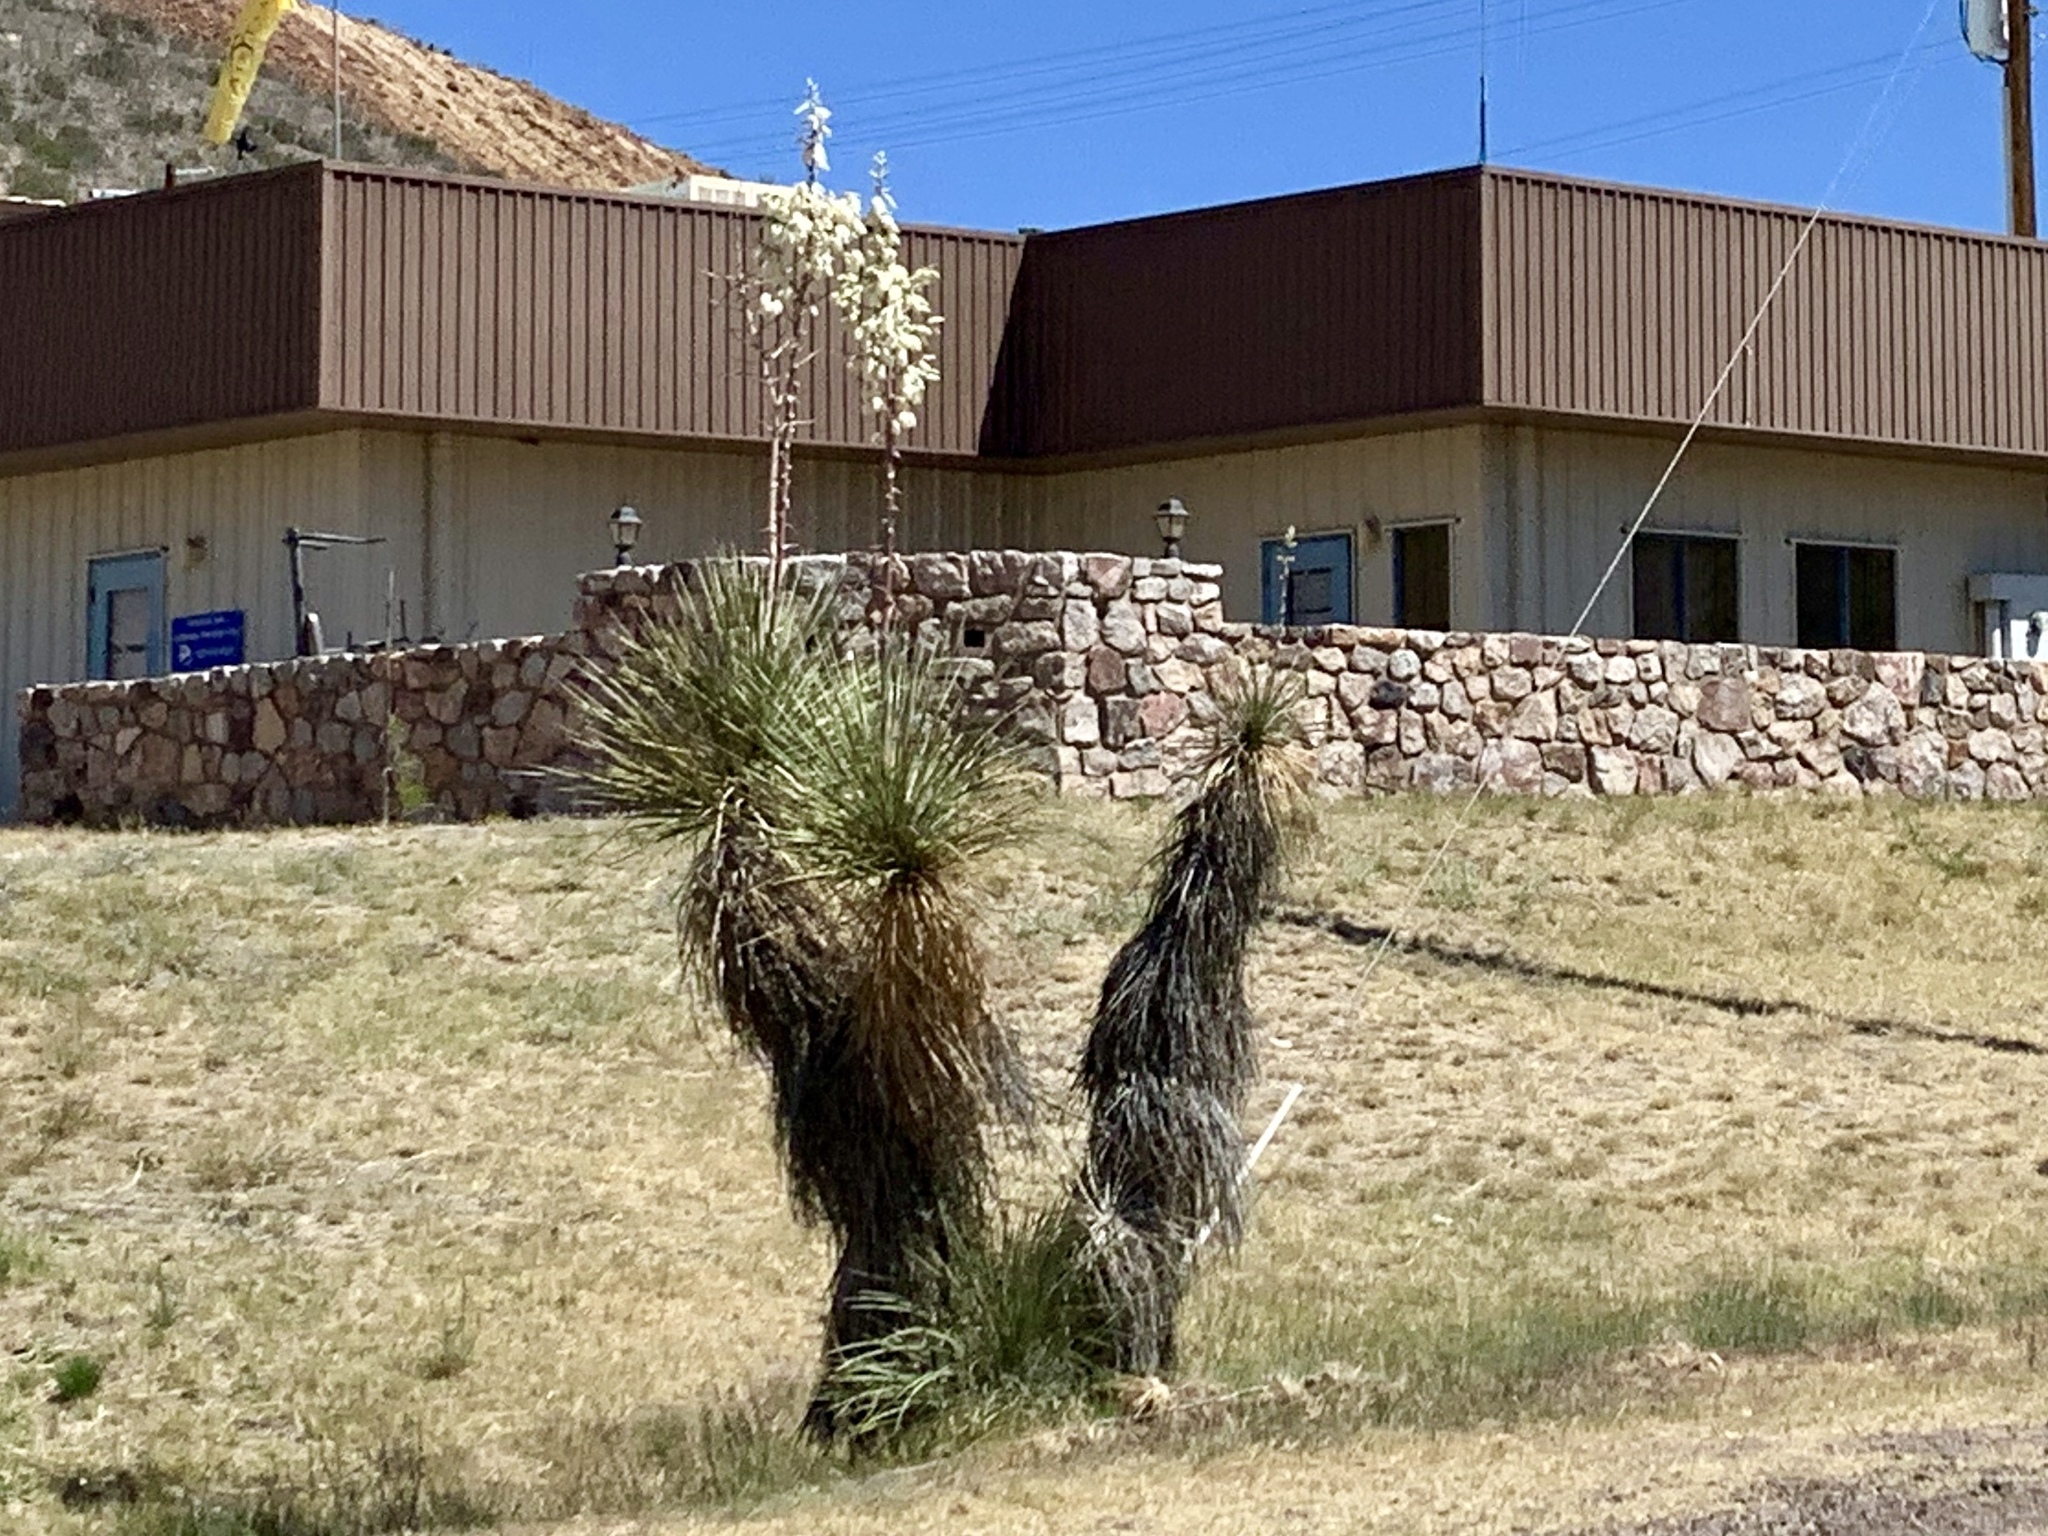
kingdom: Plantae
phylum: Tracheophyta
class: Liliopsida
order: Asparagales
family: Asparagaceae
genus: Yucca
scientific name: Yucca elata
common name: Palmella
